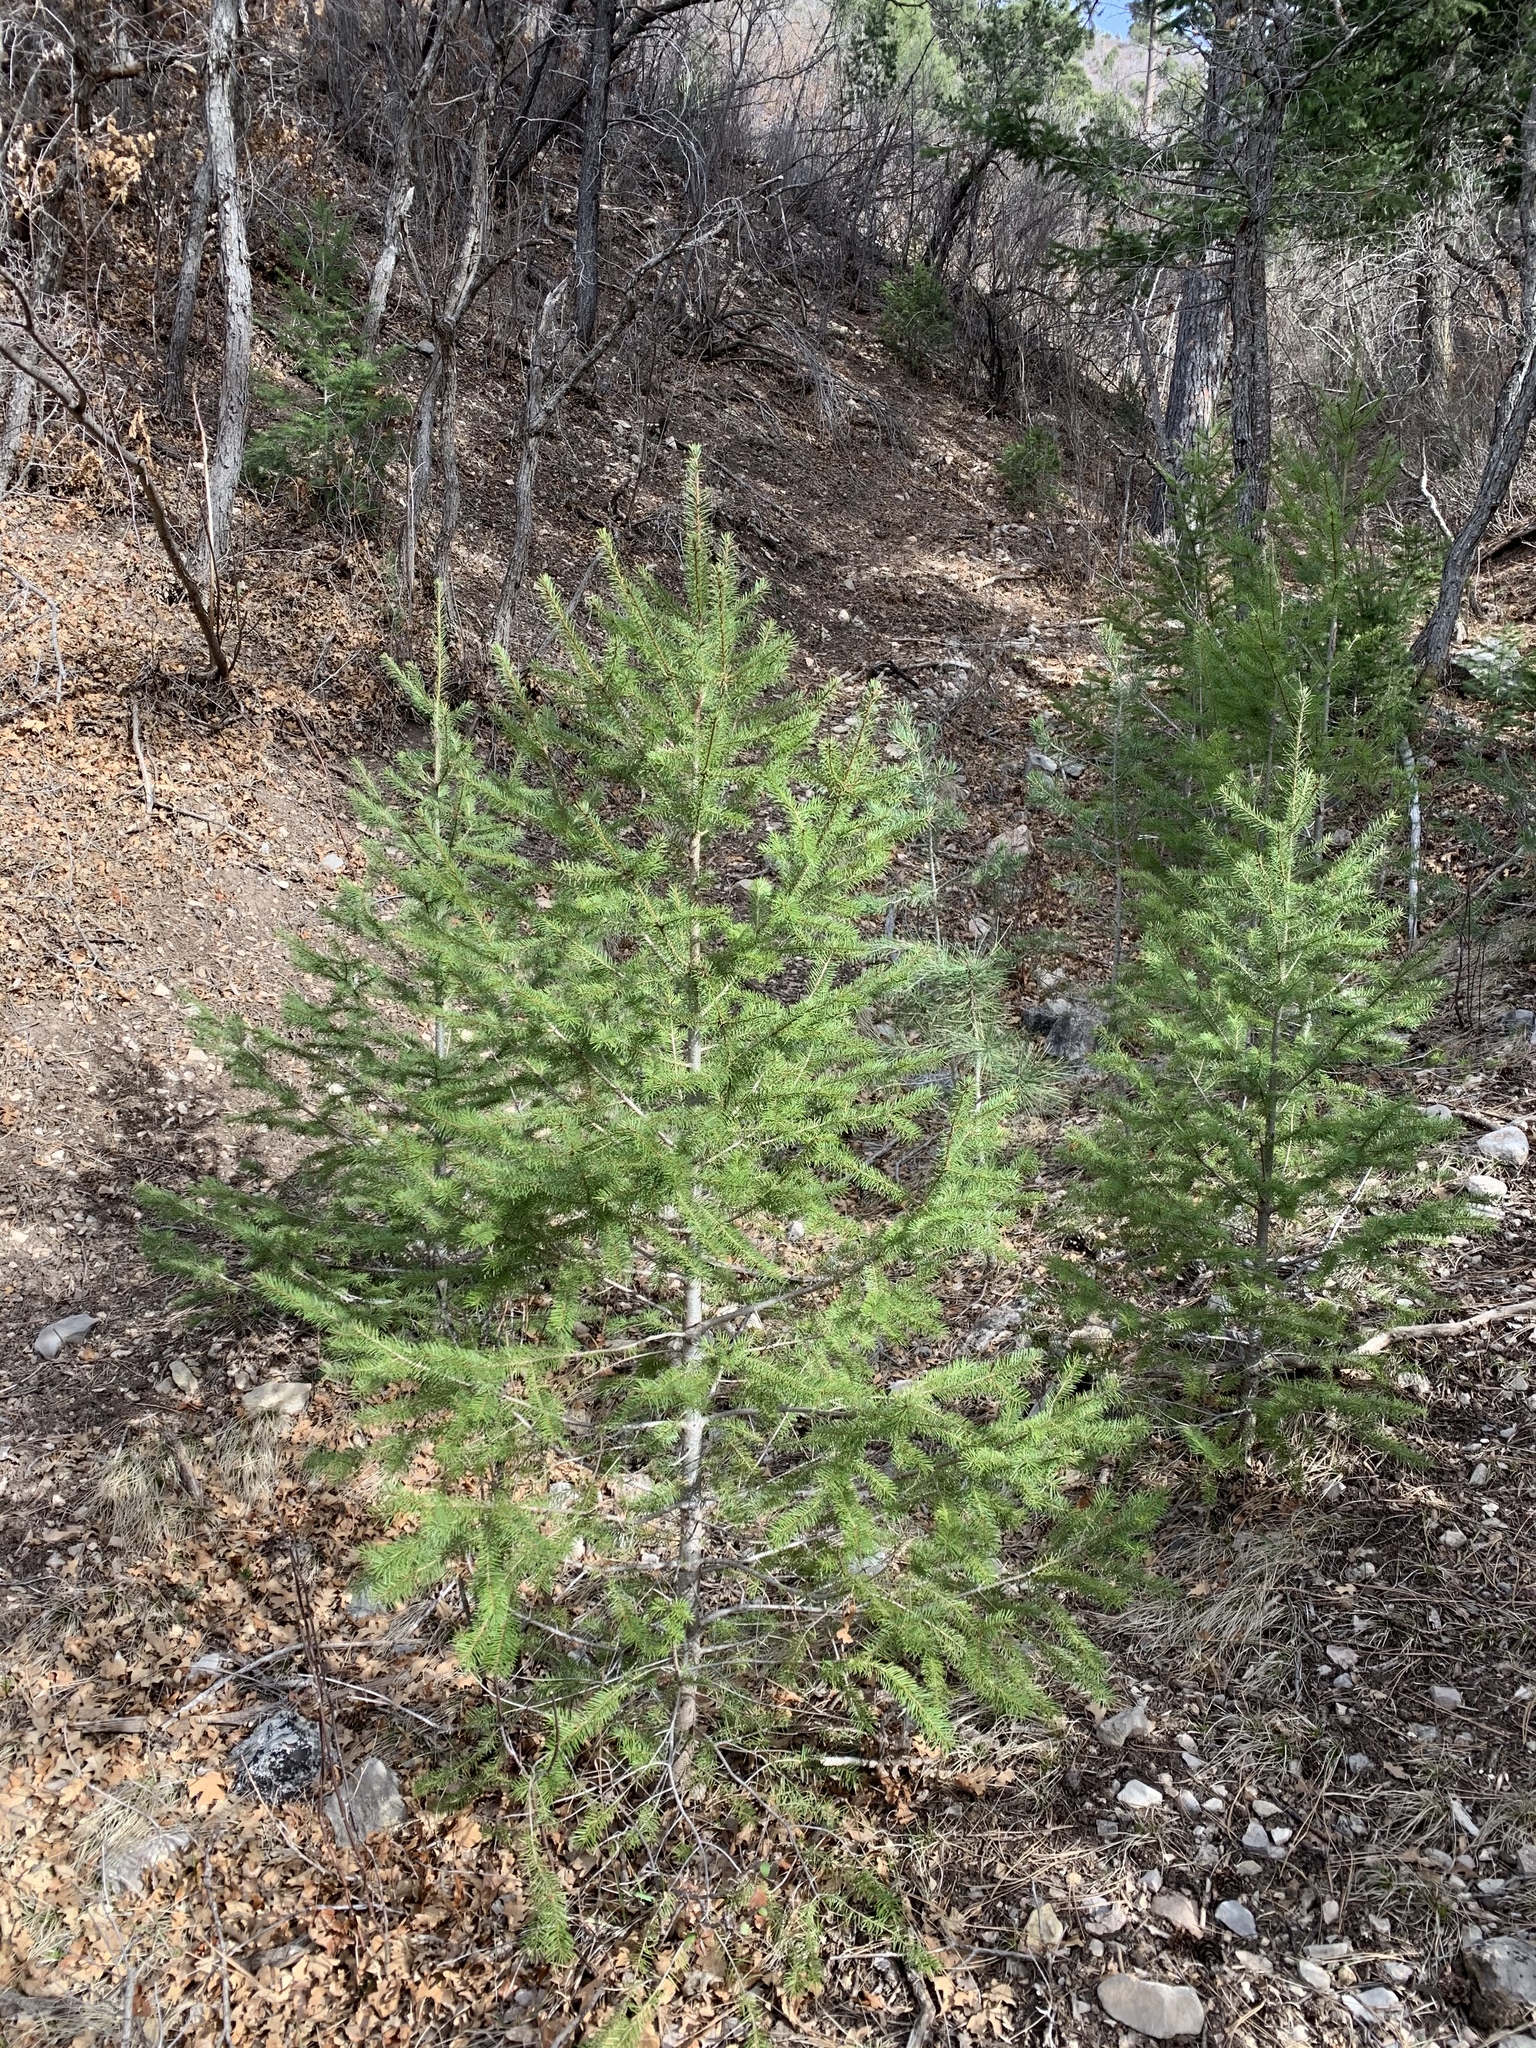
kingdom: Plantae
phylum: Tracheophyta
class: Pinopsida
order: Pinales
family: Pinaceae
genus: Pseudotsuga
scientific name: Pseudotsuga menziesii
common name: Douglas fir
